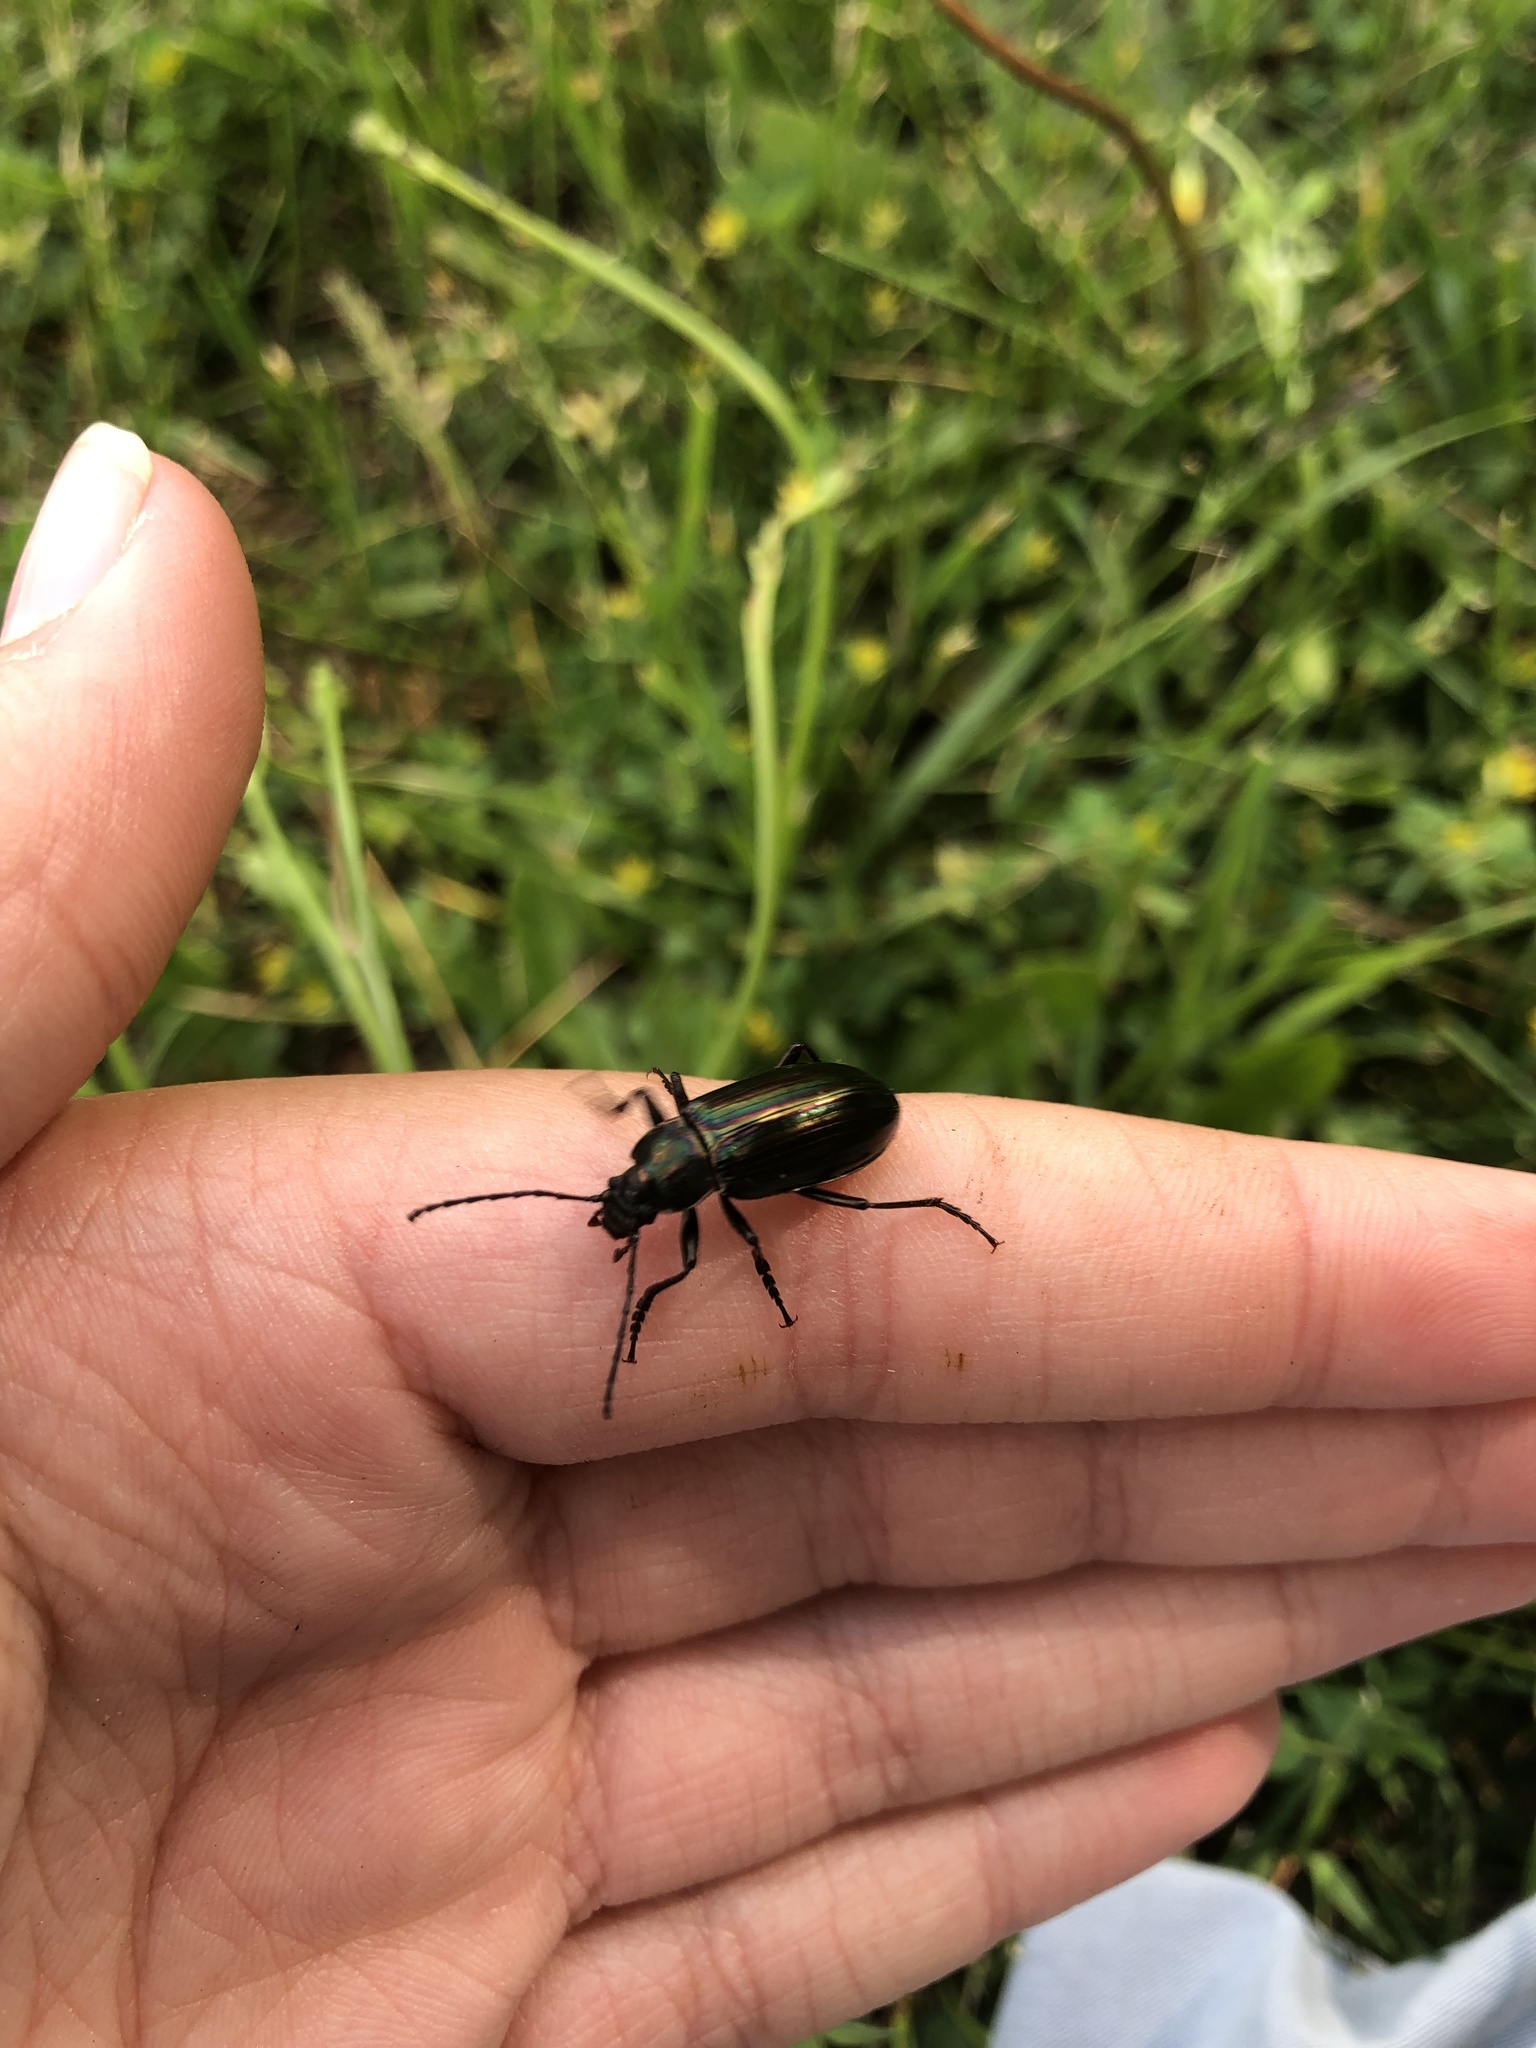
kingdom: Animalia
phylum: Arthropoda
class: Insecta
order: Coleoptera
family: Tenebrionidae
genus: Tarpela
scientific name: Tarpela micans
